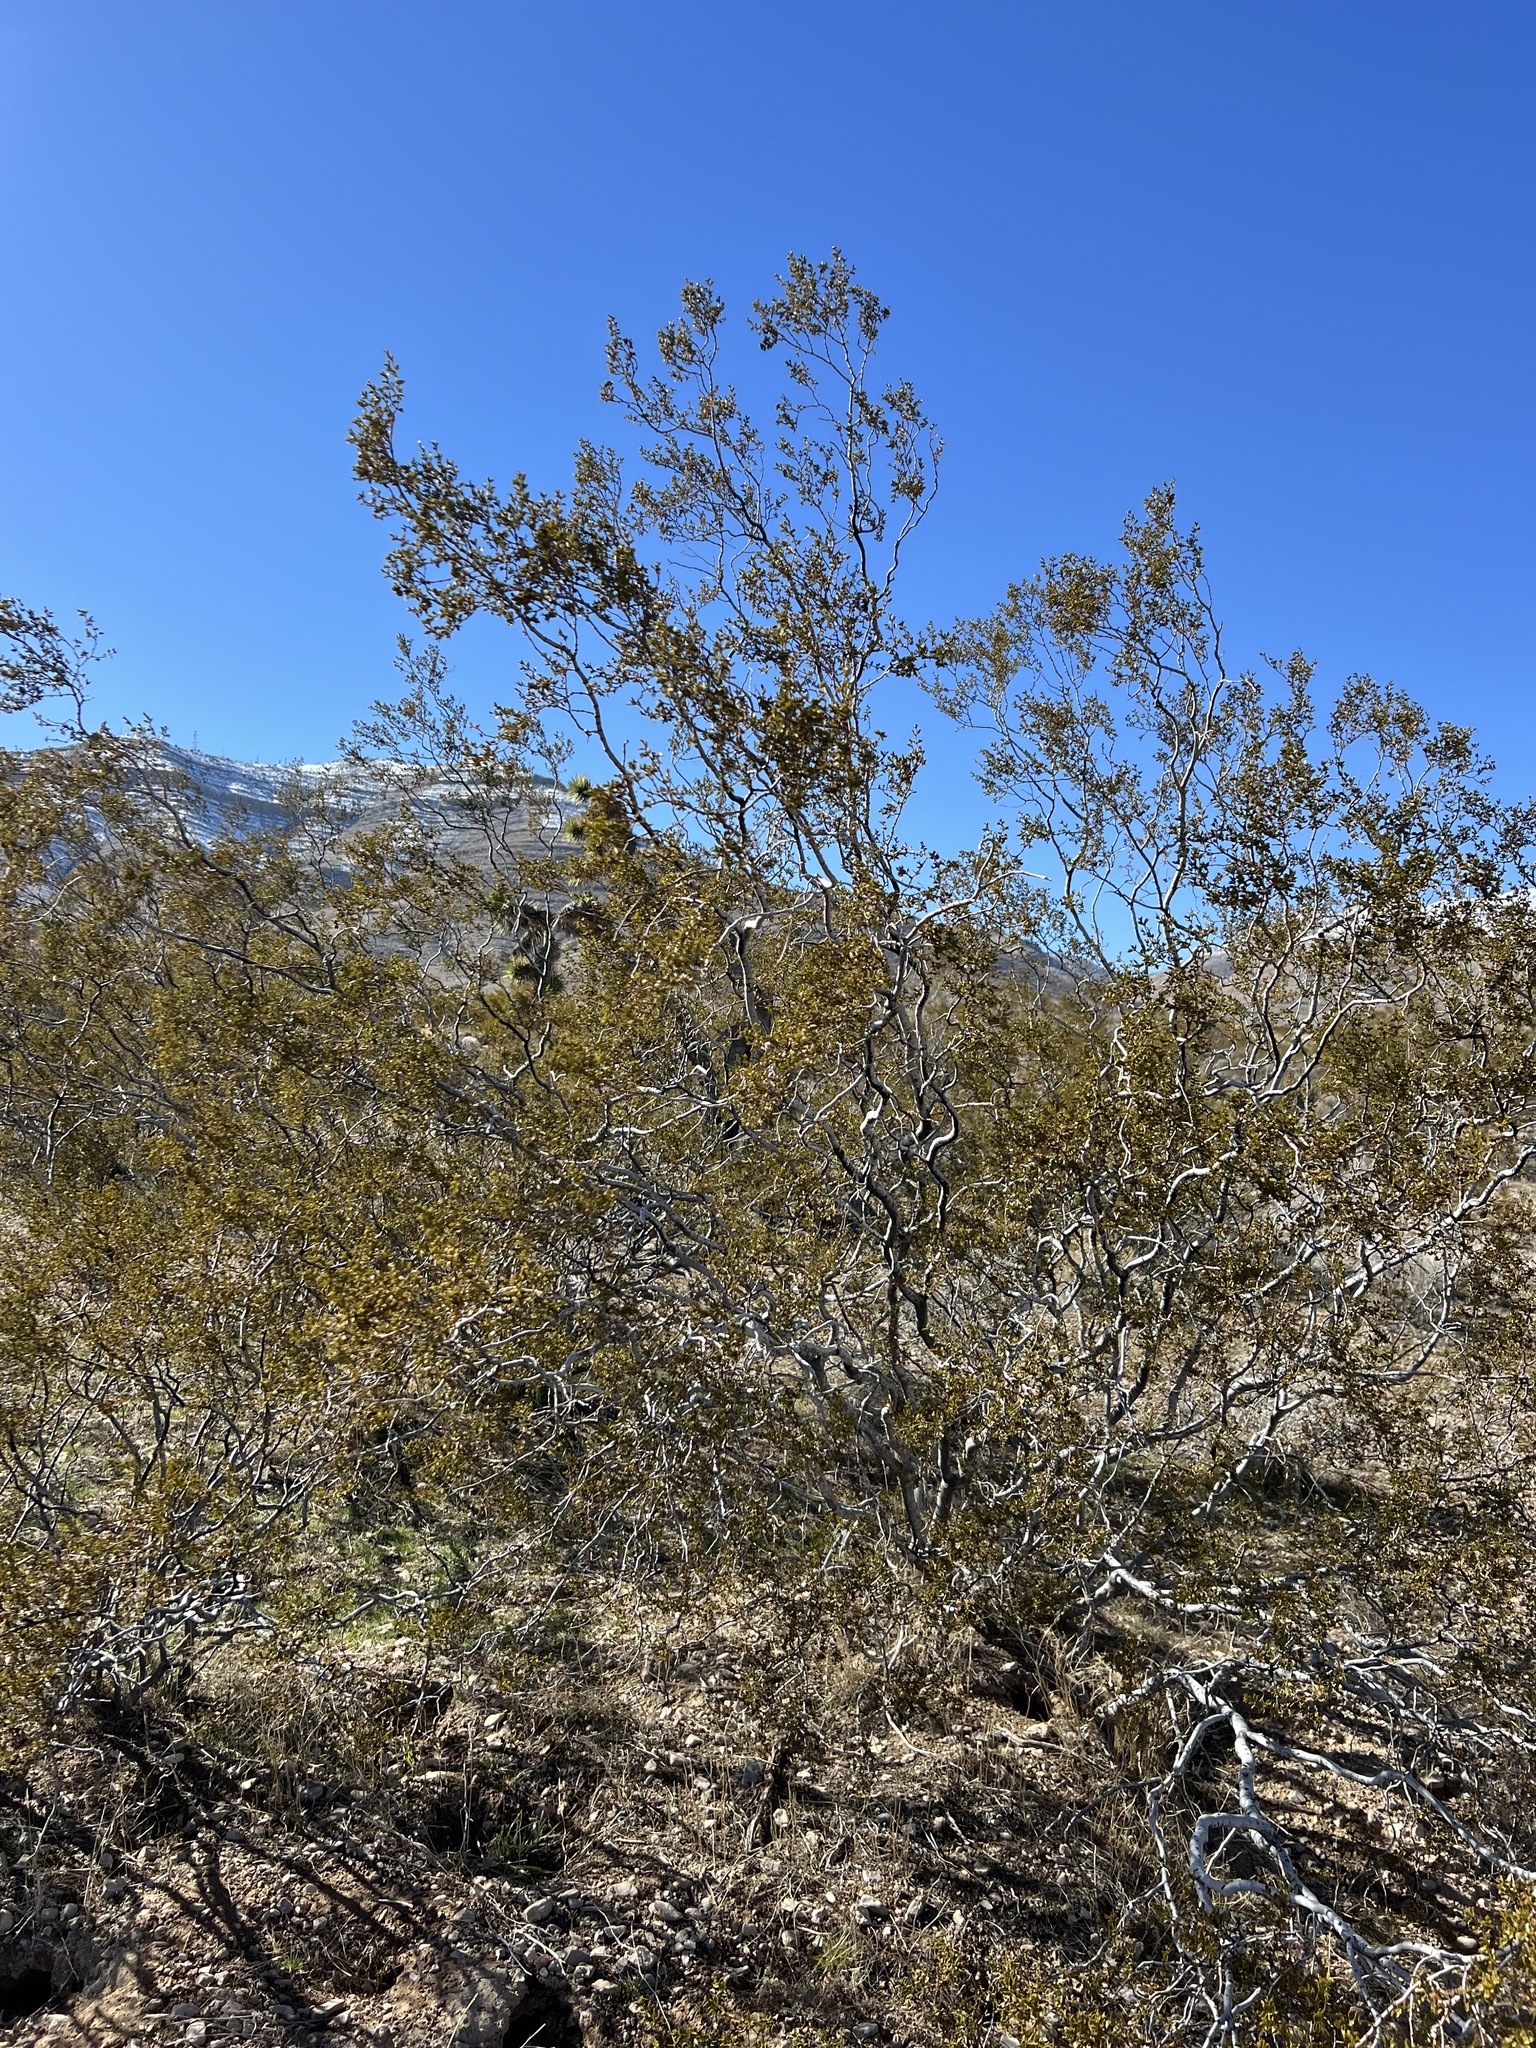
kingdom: Plantae
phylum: Tracheophyta
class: Magnoliopsida
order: Zygophyllales
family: Zygophyllaceae
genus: Larrea
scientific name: Larrea tridentata
